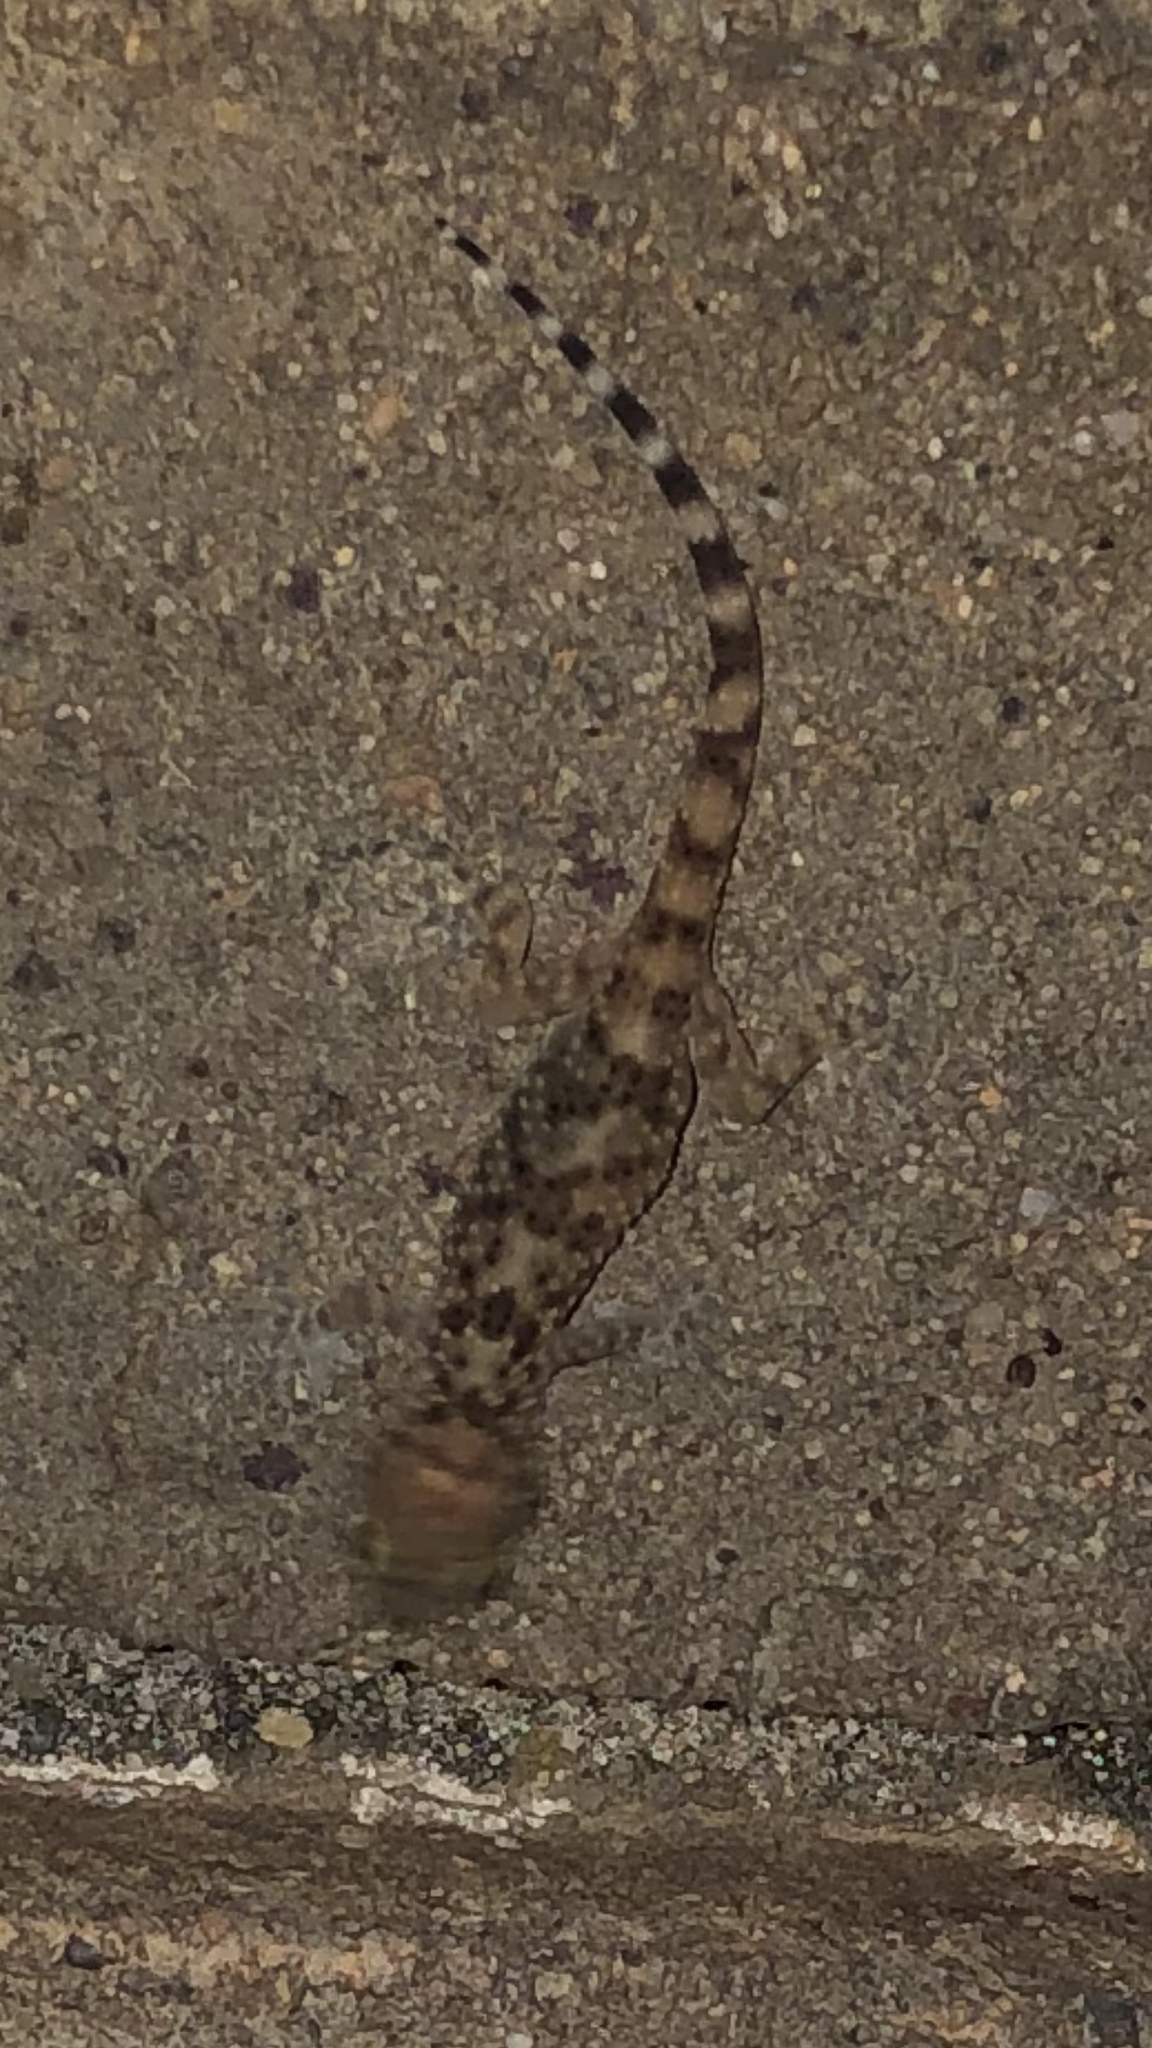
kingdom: Animalia
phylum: Chordata
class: Squamata
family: Gekkonidae
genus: Hemidactylus
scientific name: Hemidactylus turcicus
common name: Turkish gecko
